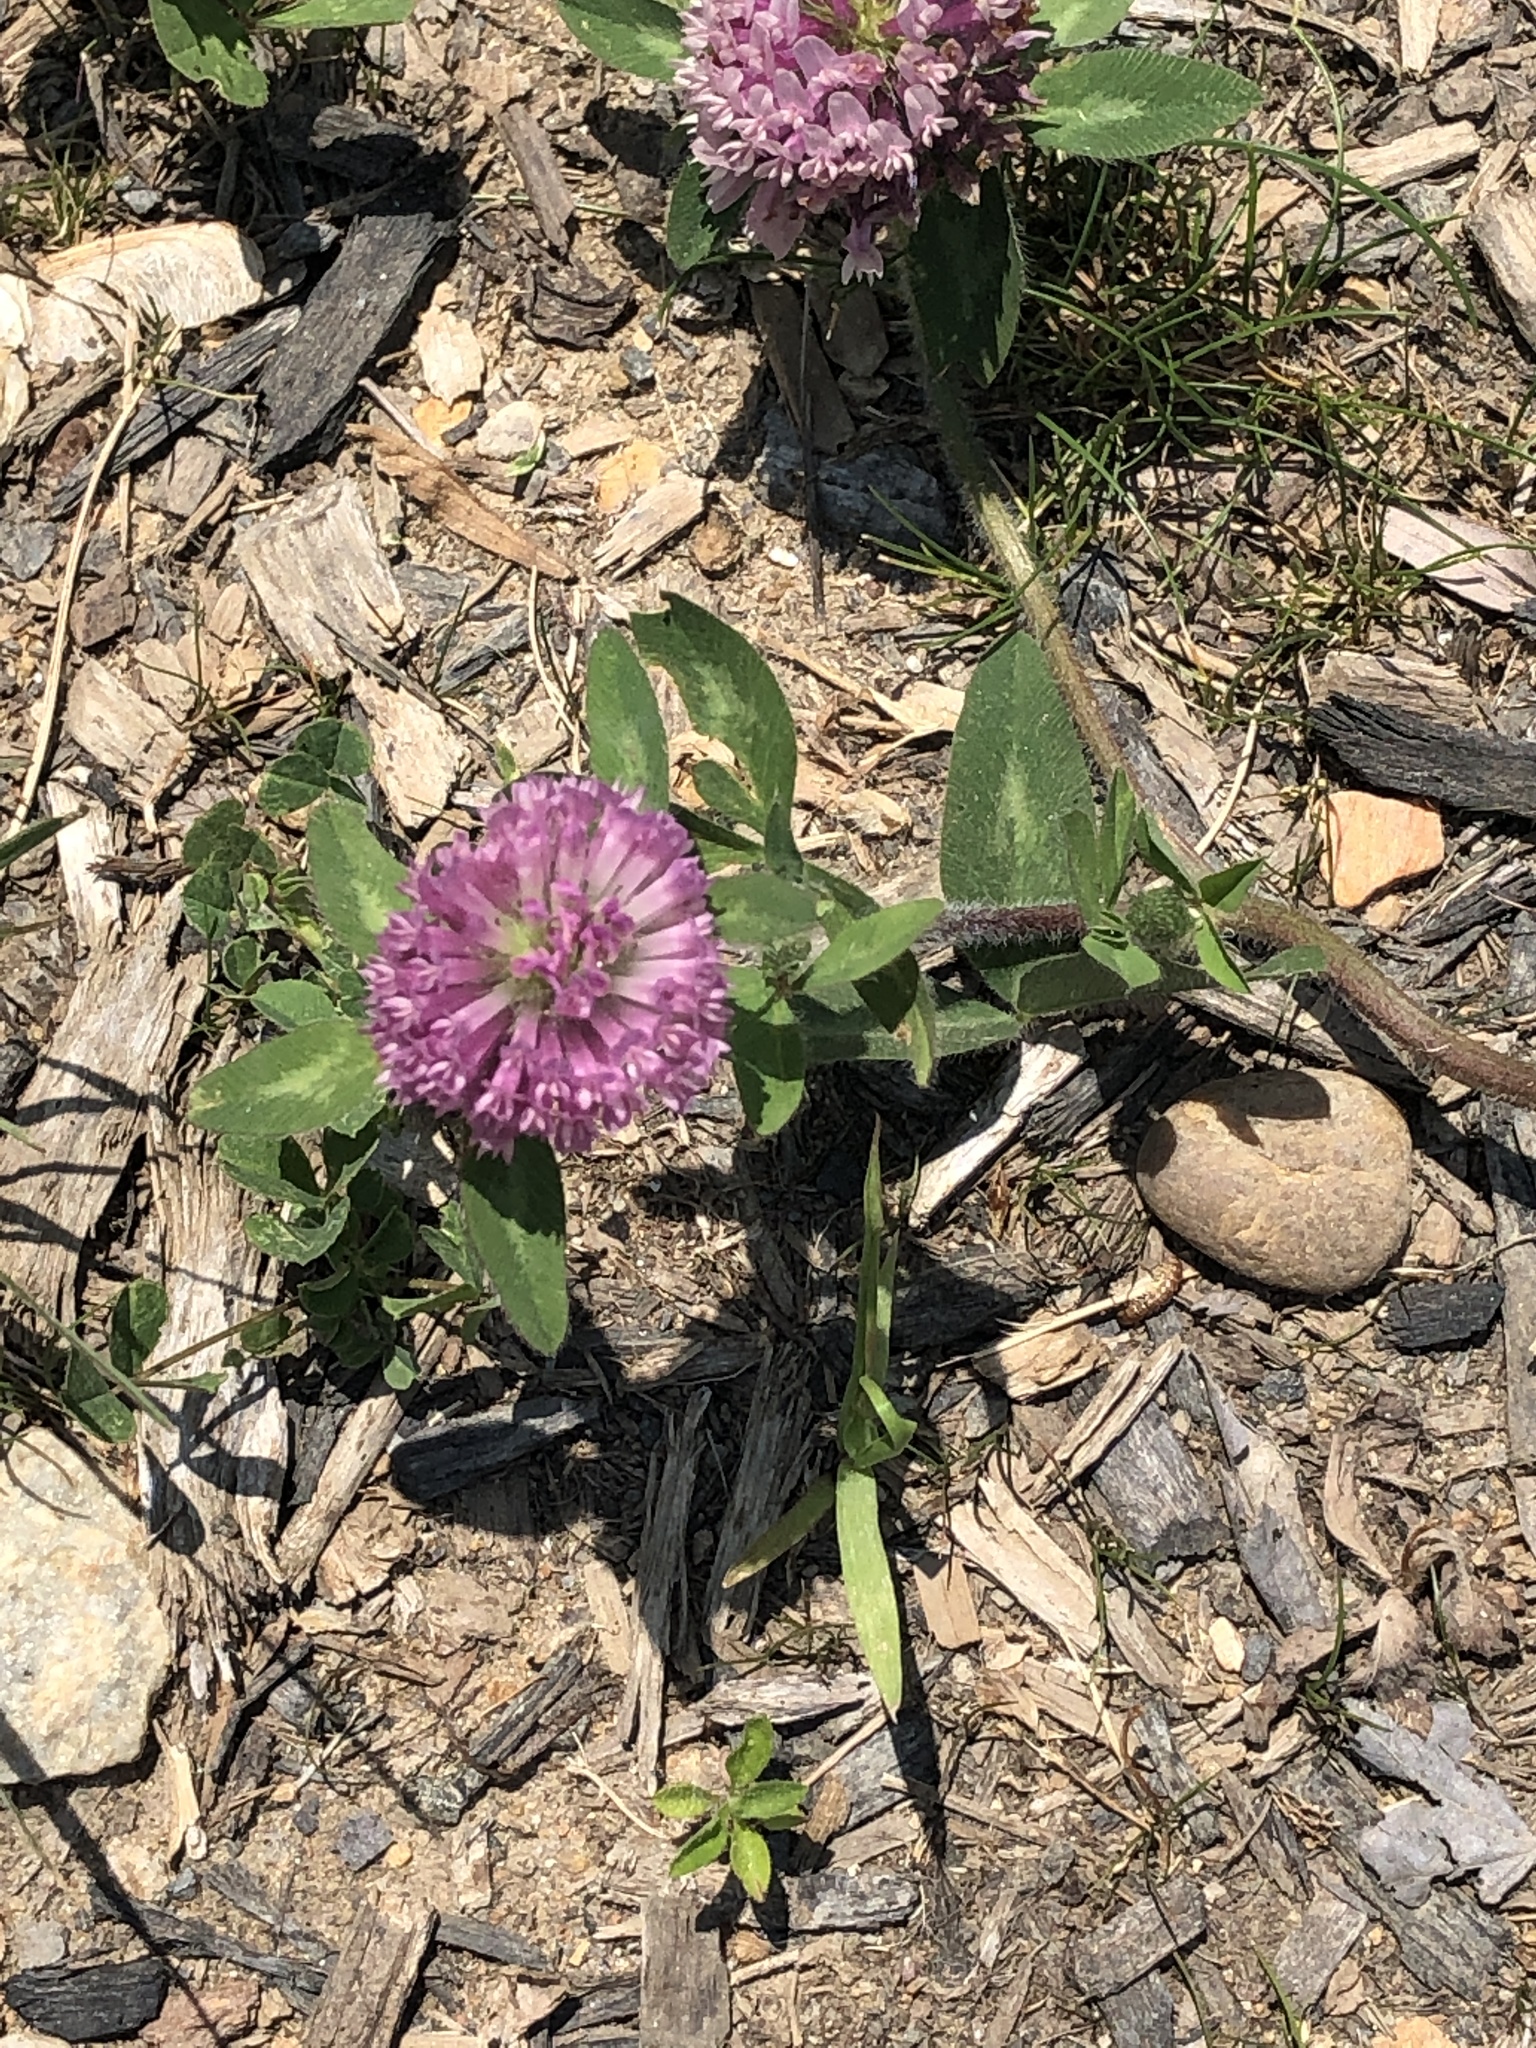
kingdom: Plantae
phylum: Tracheophyta
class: Magnoliopsida
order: Fabales
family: Fabaceae
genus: Trifolium
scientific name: Trifolium pratense
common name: Red clover
